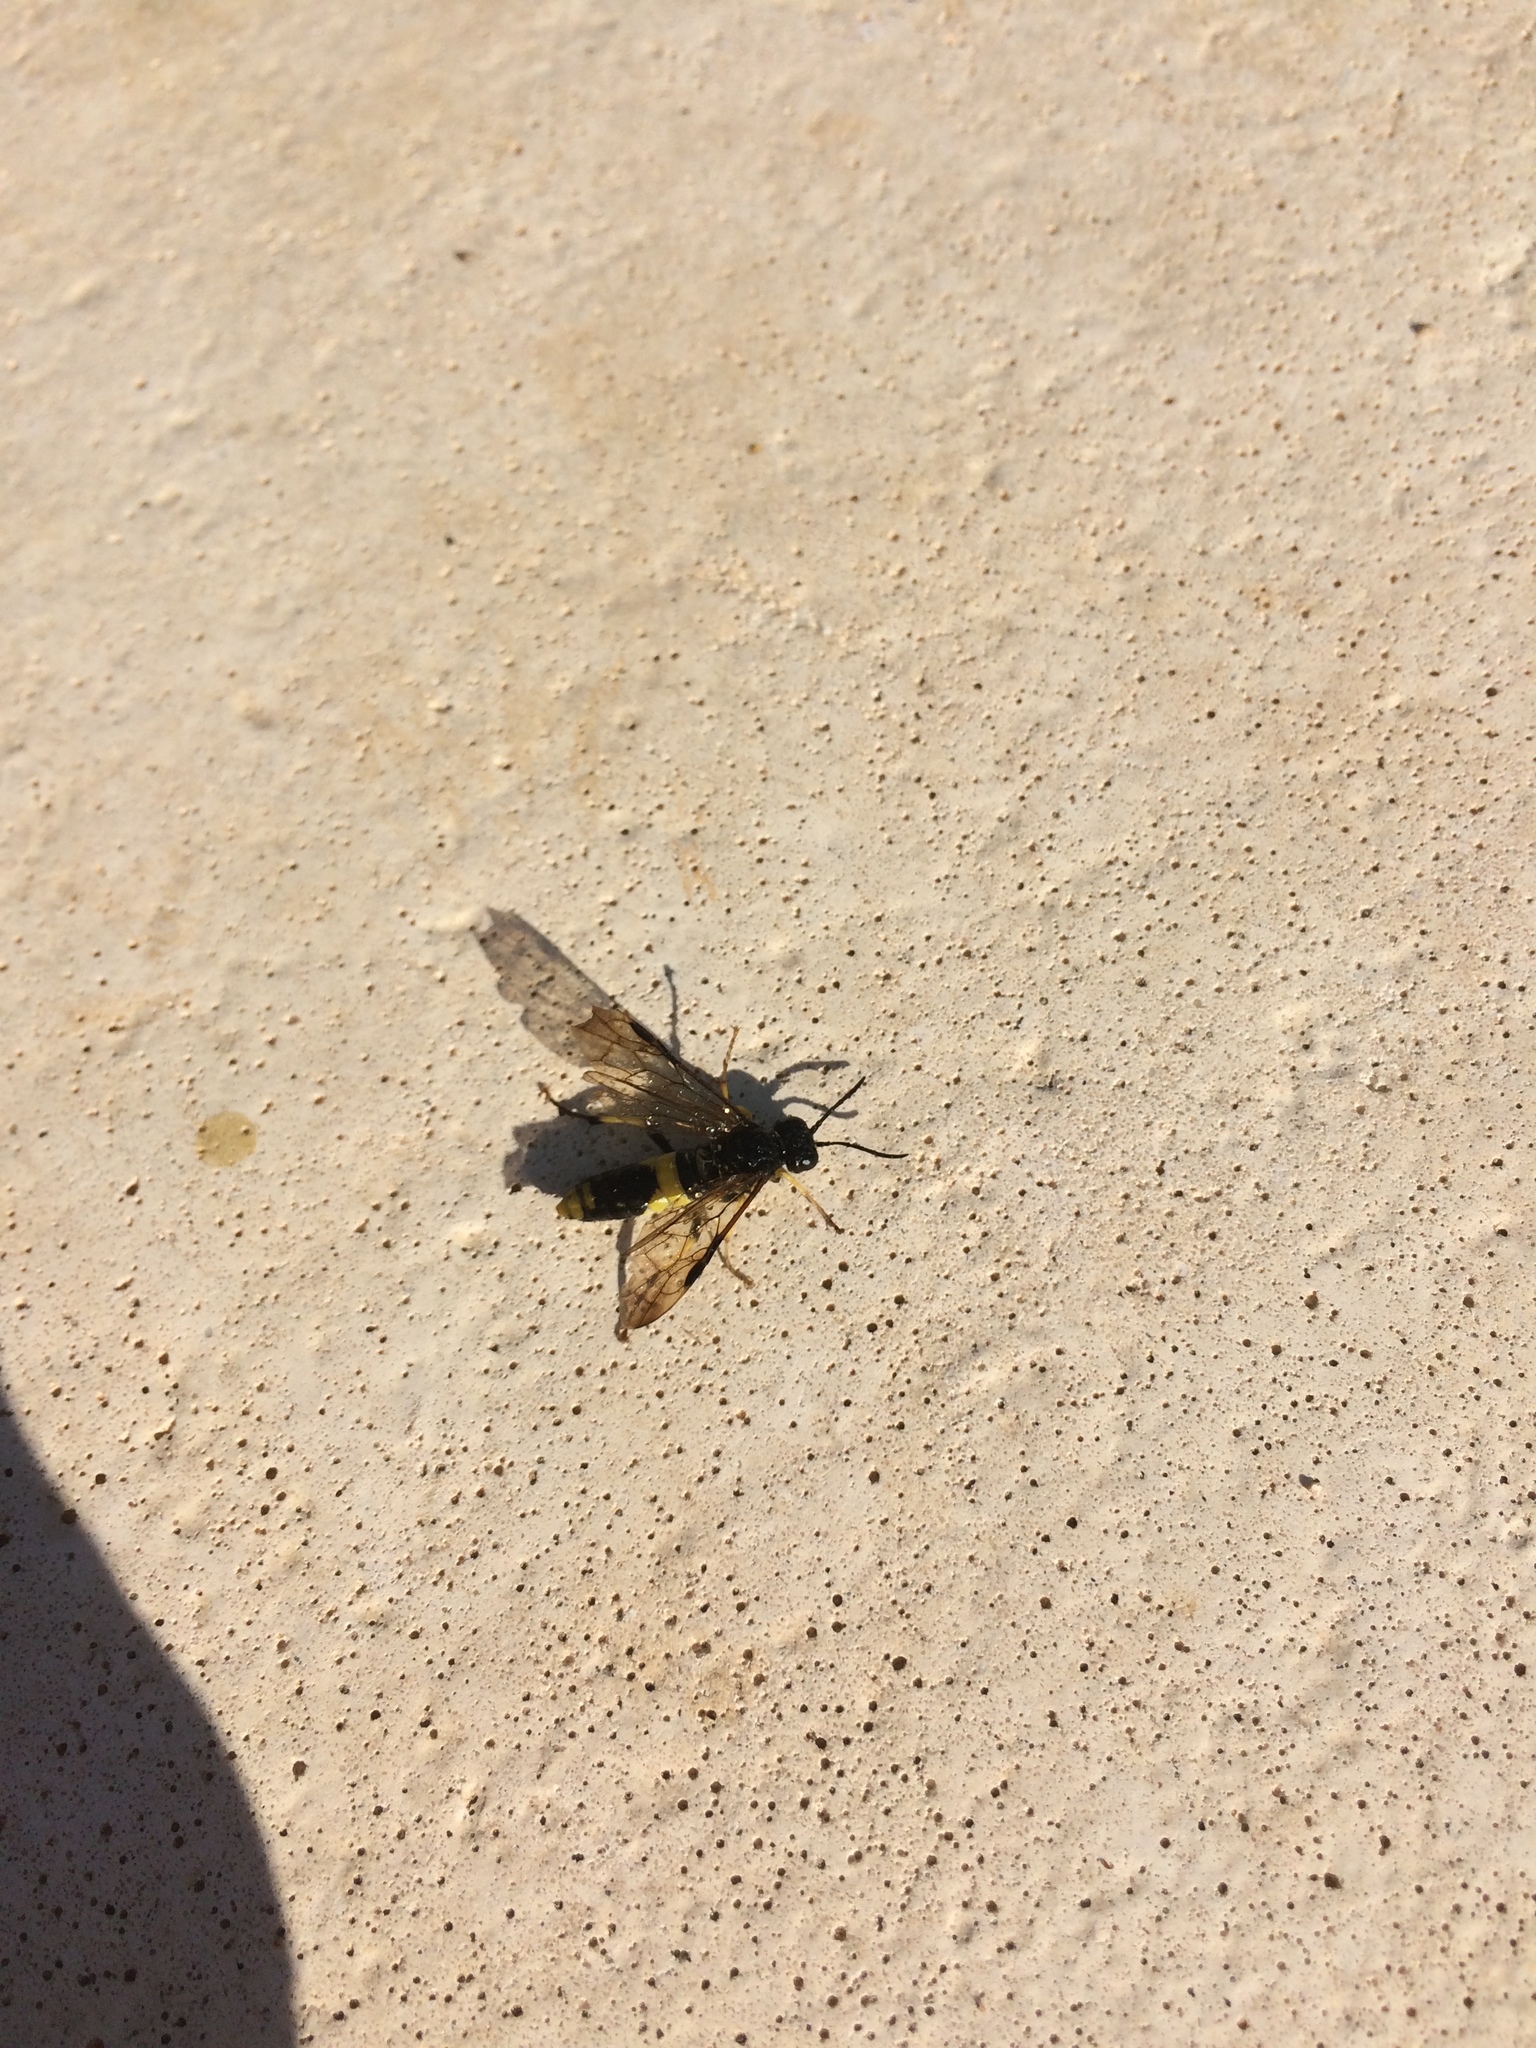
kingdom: Animalia
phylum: Arthropoda
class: Insecta
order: Hymenoptera
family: Tenthredinidae
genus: Tenthredo
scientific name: Tenthredo temula
